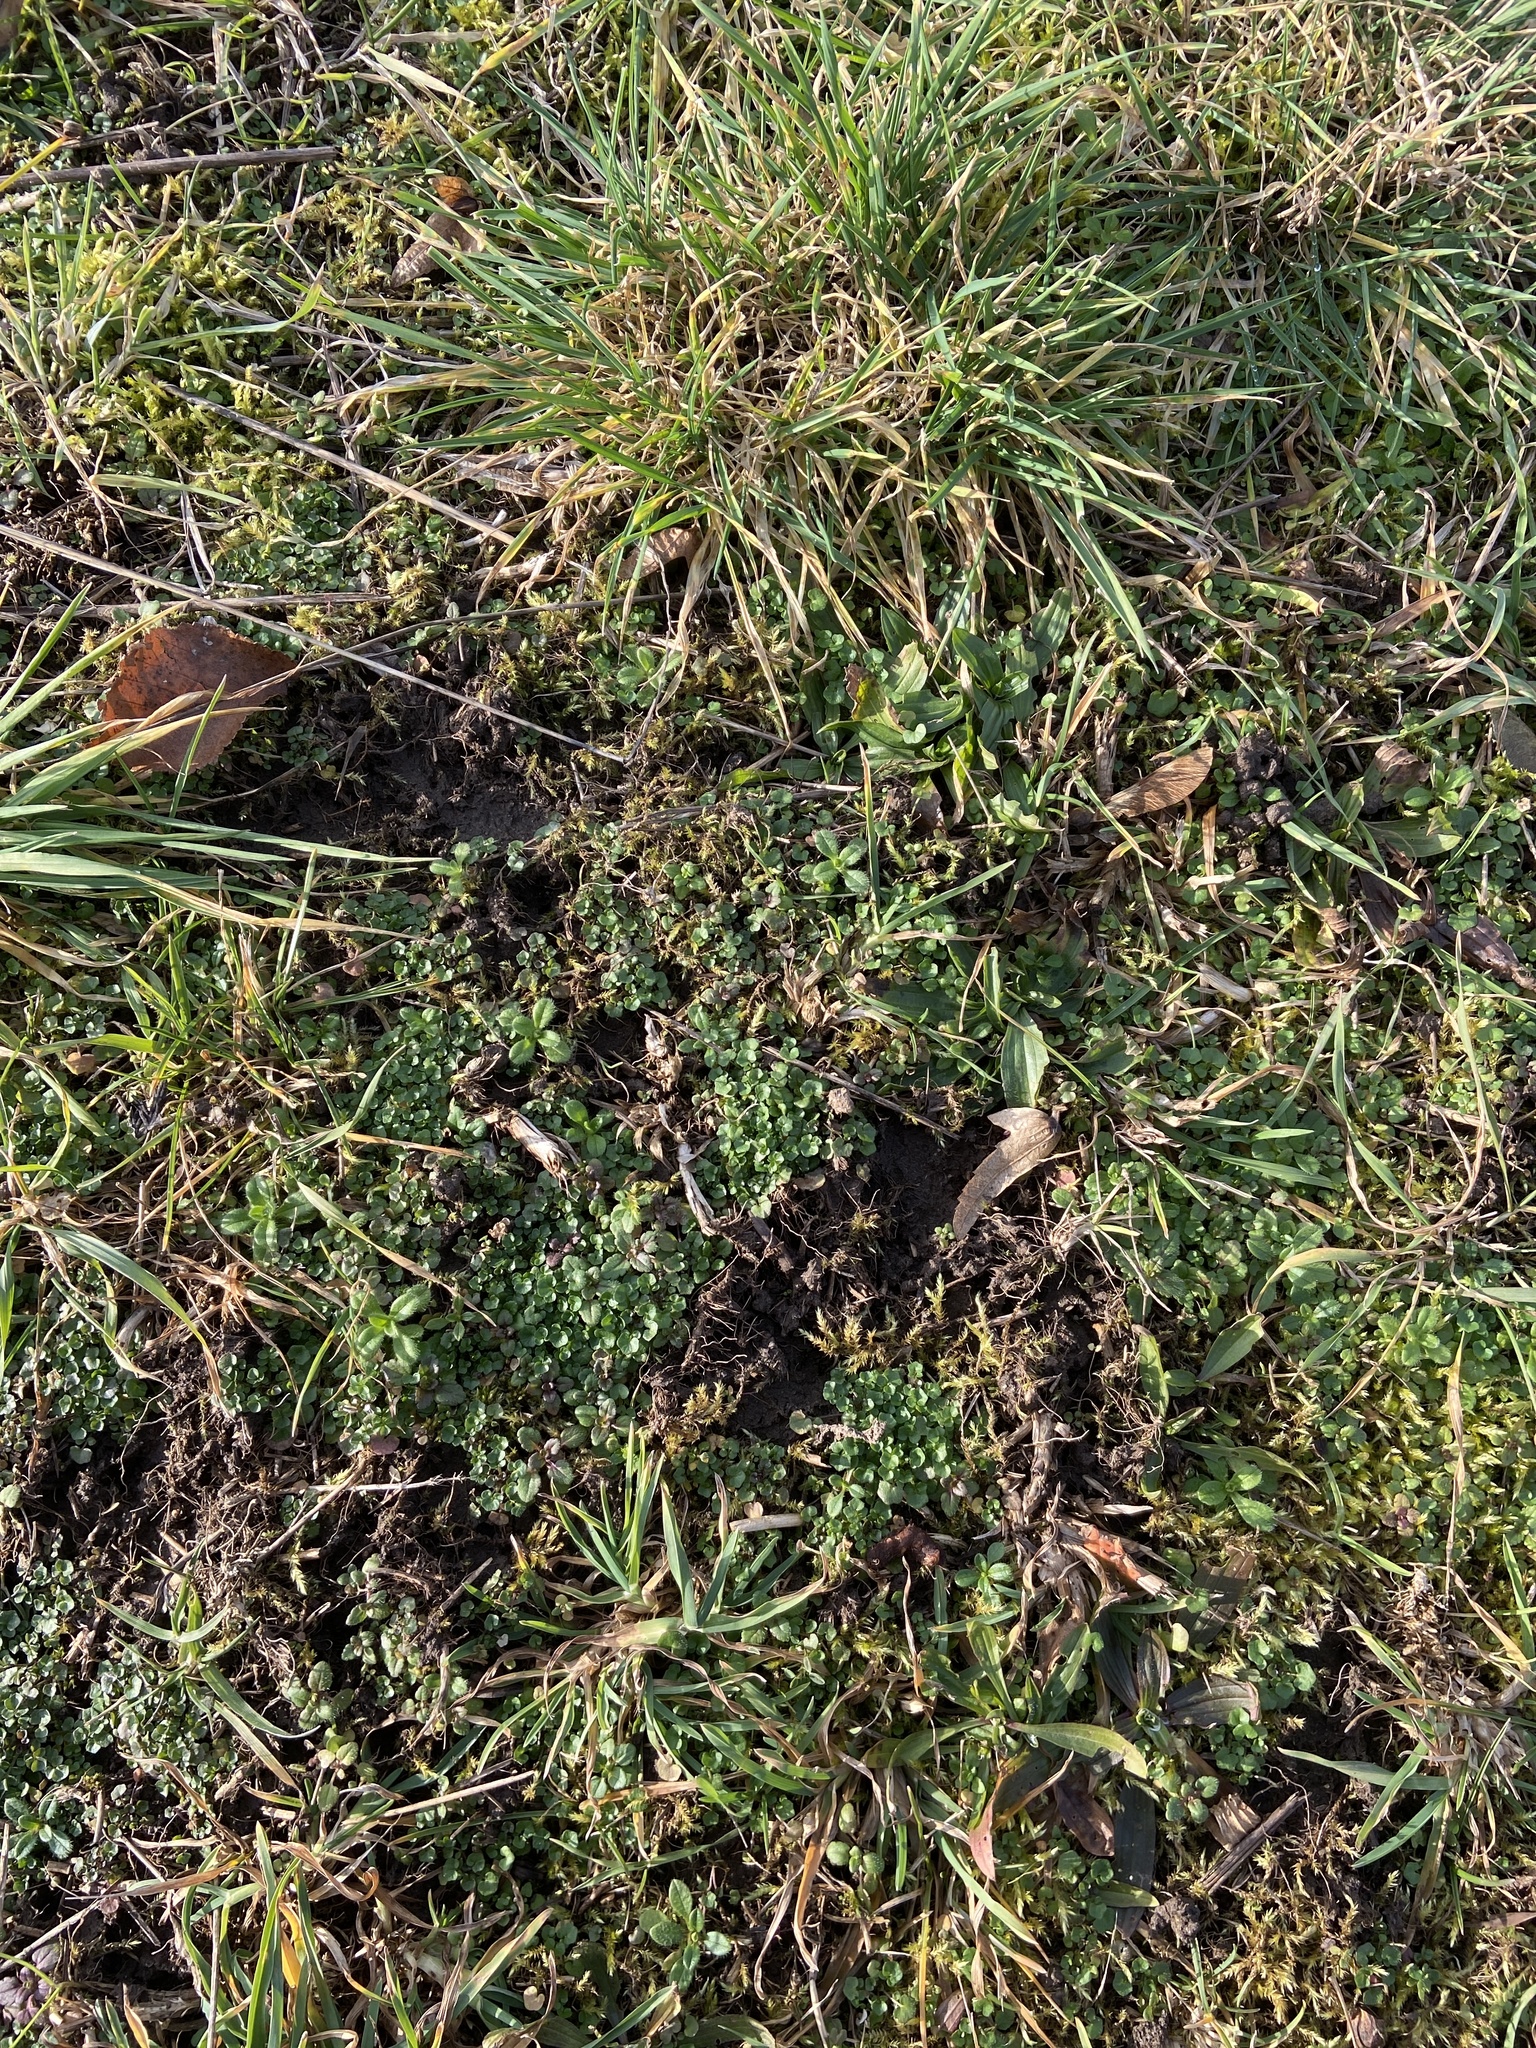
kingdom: Plantae
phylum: Tracheophyta
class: Magnoliopsida
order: Brassicales
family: Brassicaceae
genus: Cardamine
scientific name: Cardamine hirsuta
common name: Hairy bittercress
